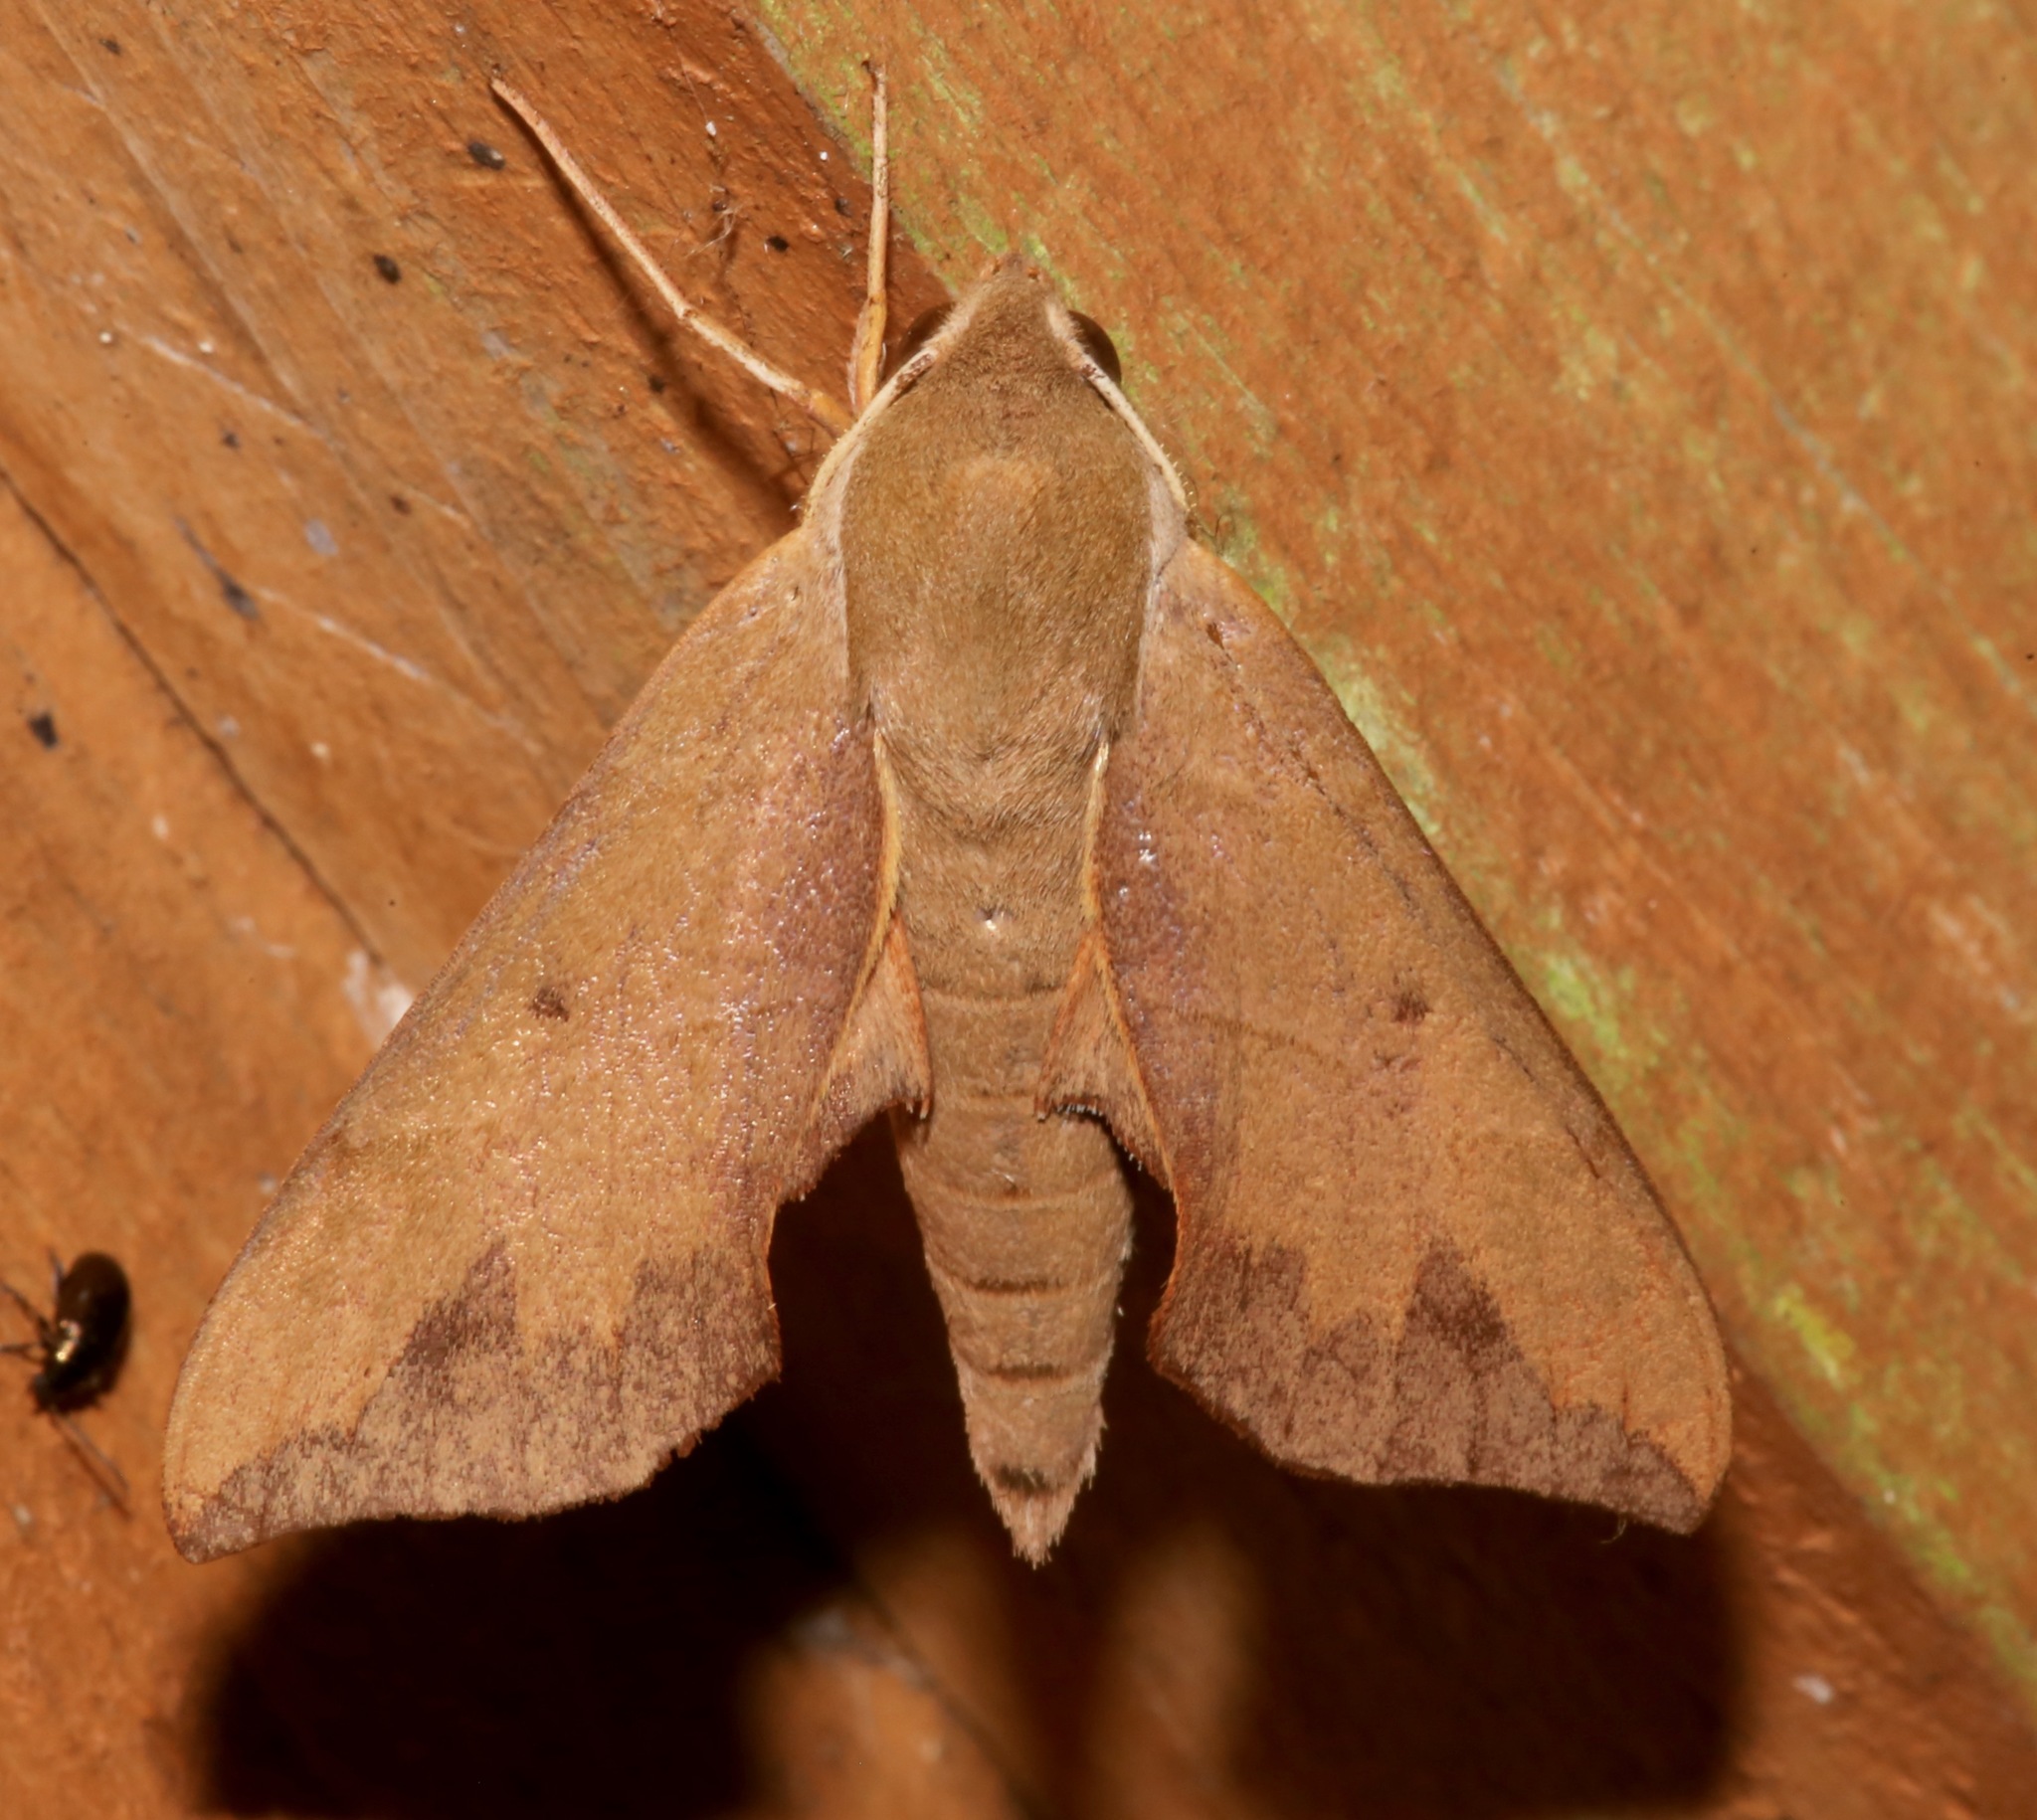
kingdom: Animalia
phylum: Arthropoda
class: Insecta
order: Lepidoptera
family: Sphingidae
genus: Darapsa
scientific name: Darapsa myron
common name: Hog sphinx
